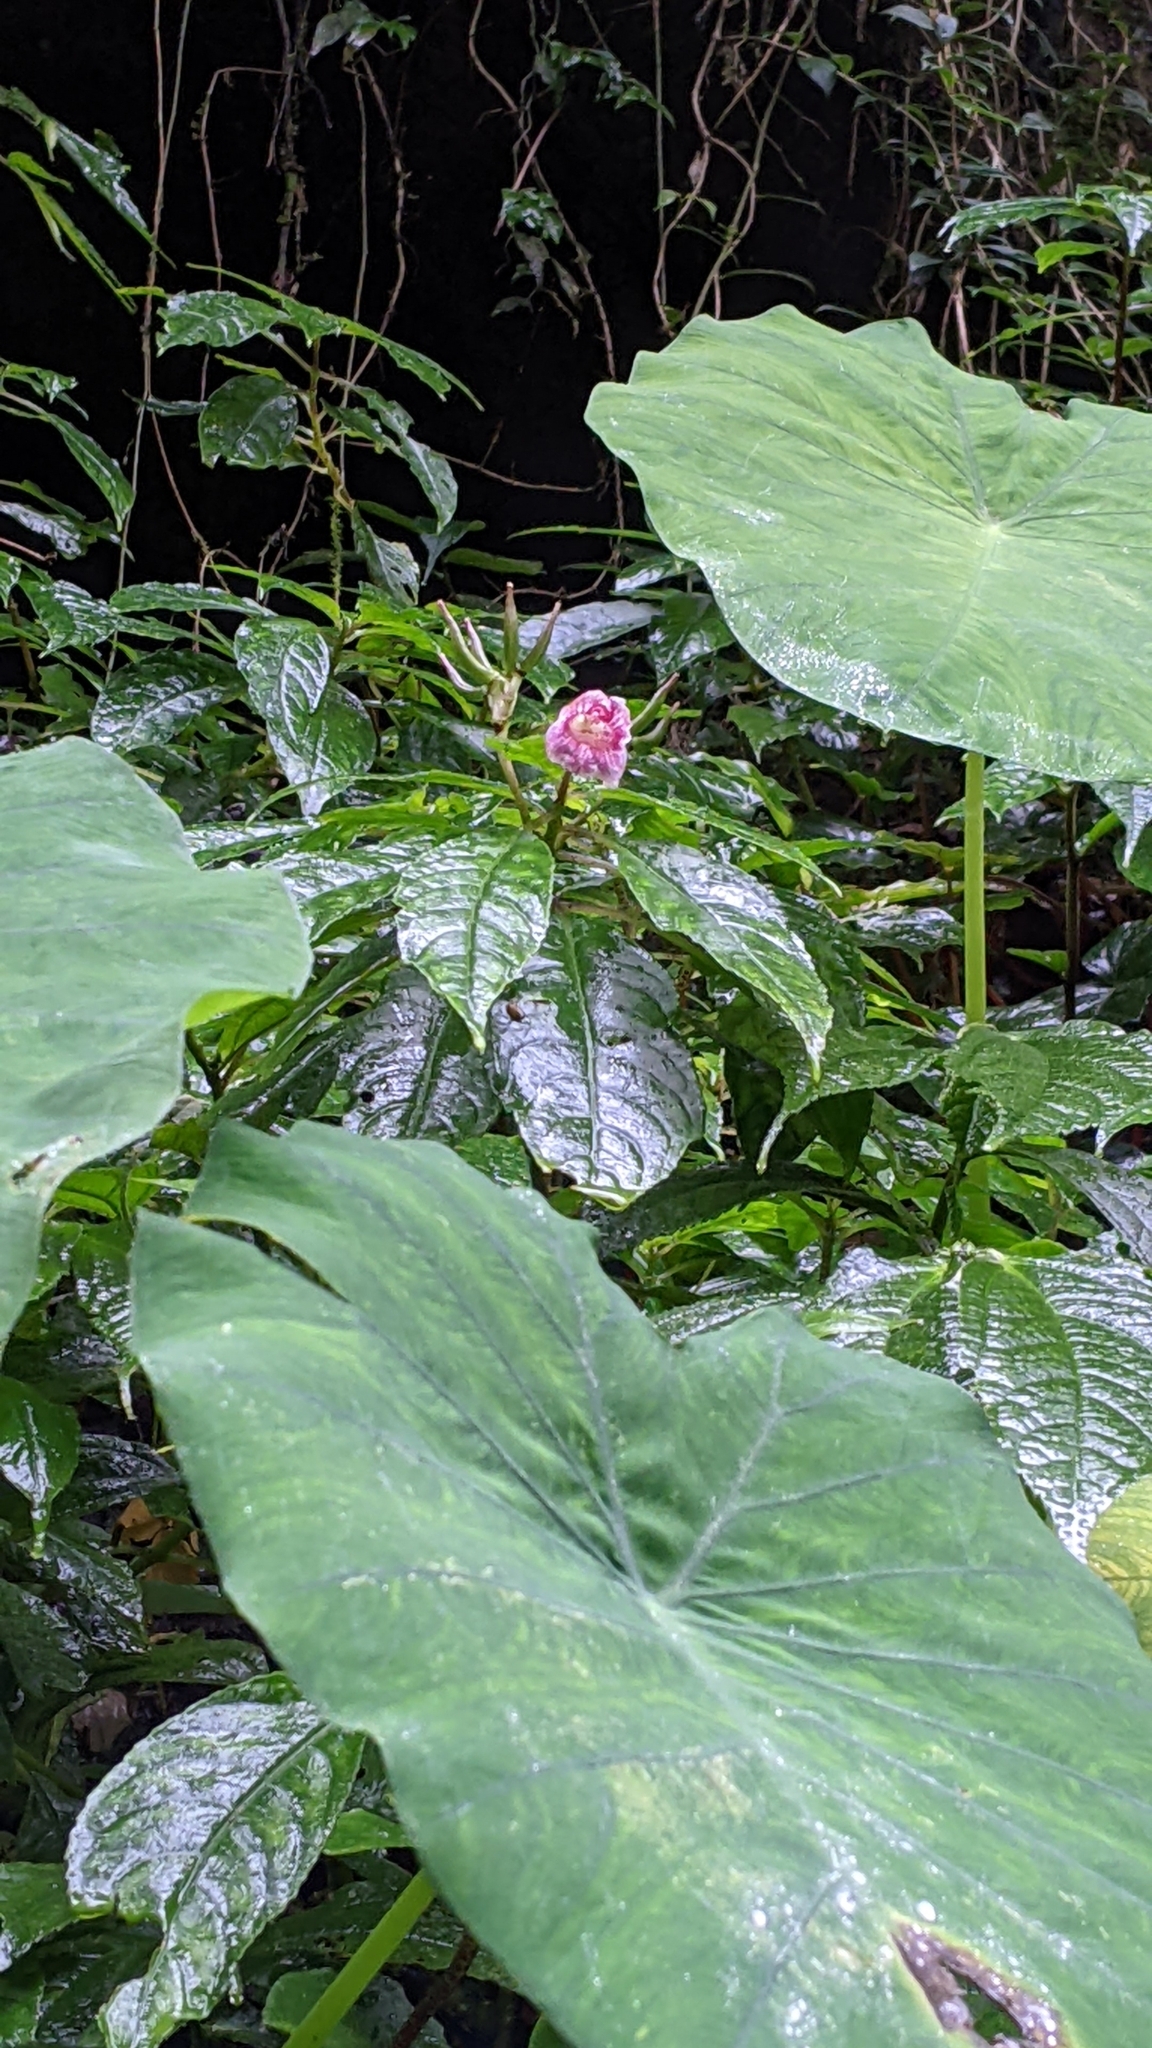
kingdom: Plantae
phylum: Tracheophyta
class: Magnoliopsida
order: Lamiales
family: Gesneriaceae
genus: Hemiboea
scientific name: Hemiboea bicornuta
